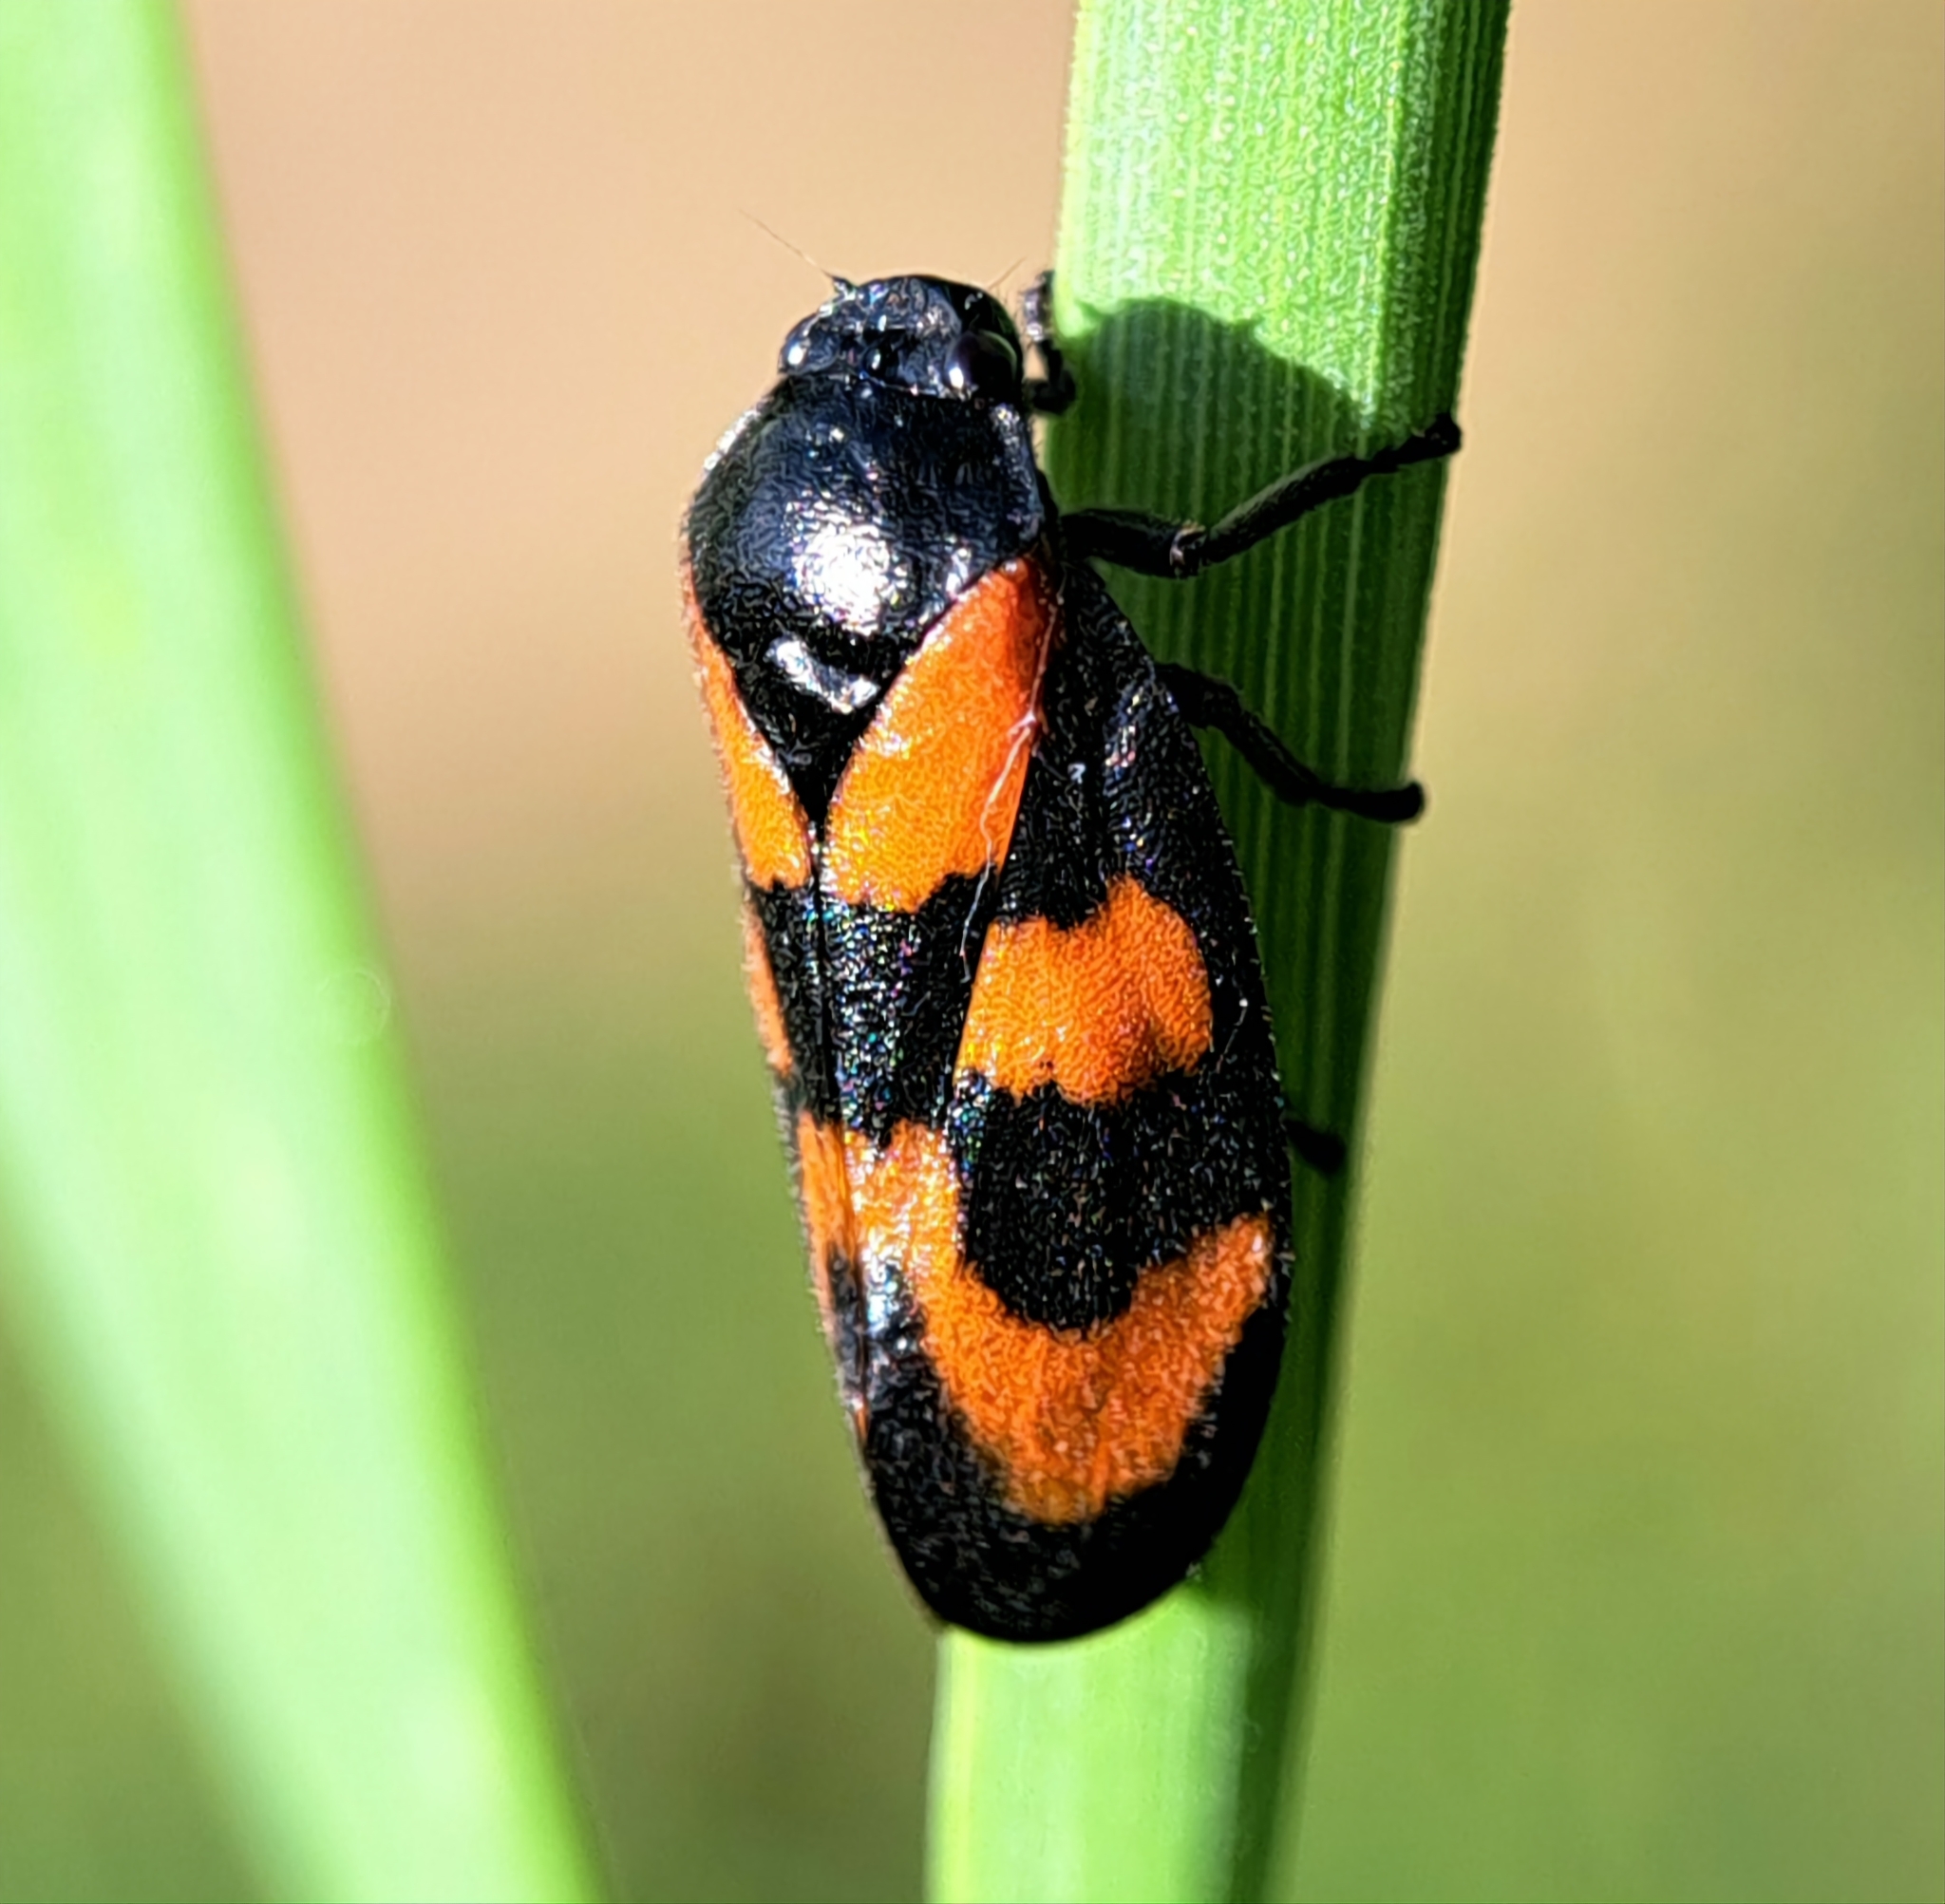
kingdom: Animalia
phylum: Arthropoda
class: Insecta
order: Hemiptera
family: Cercopidae
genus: Cercopis
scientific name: Cercopis vulnerata
